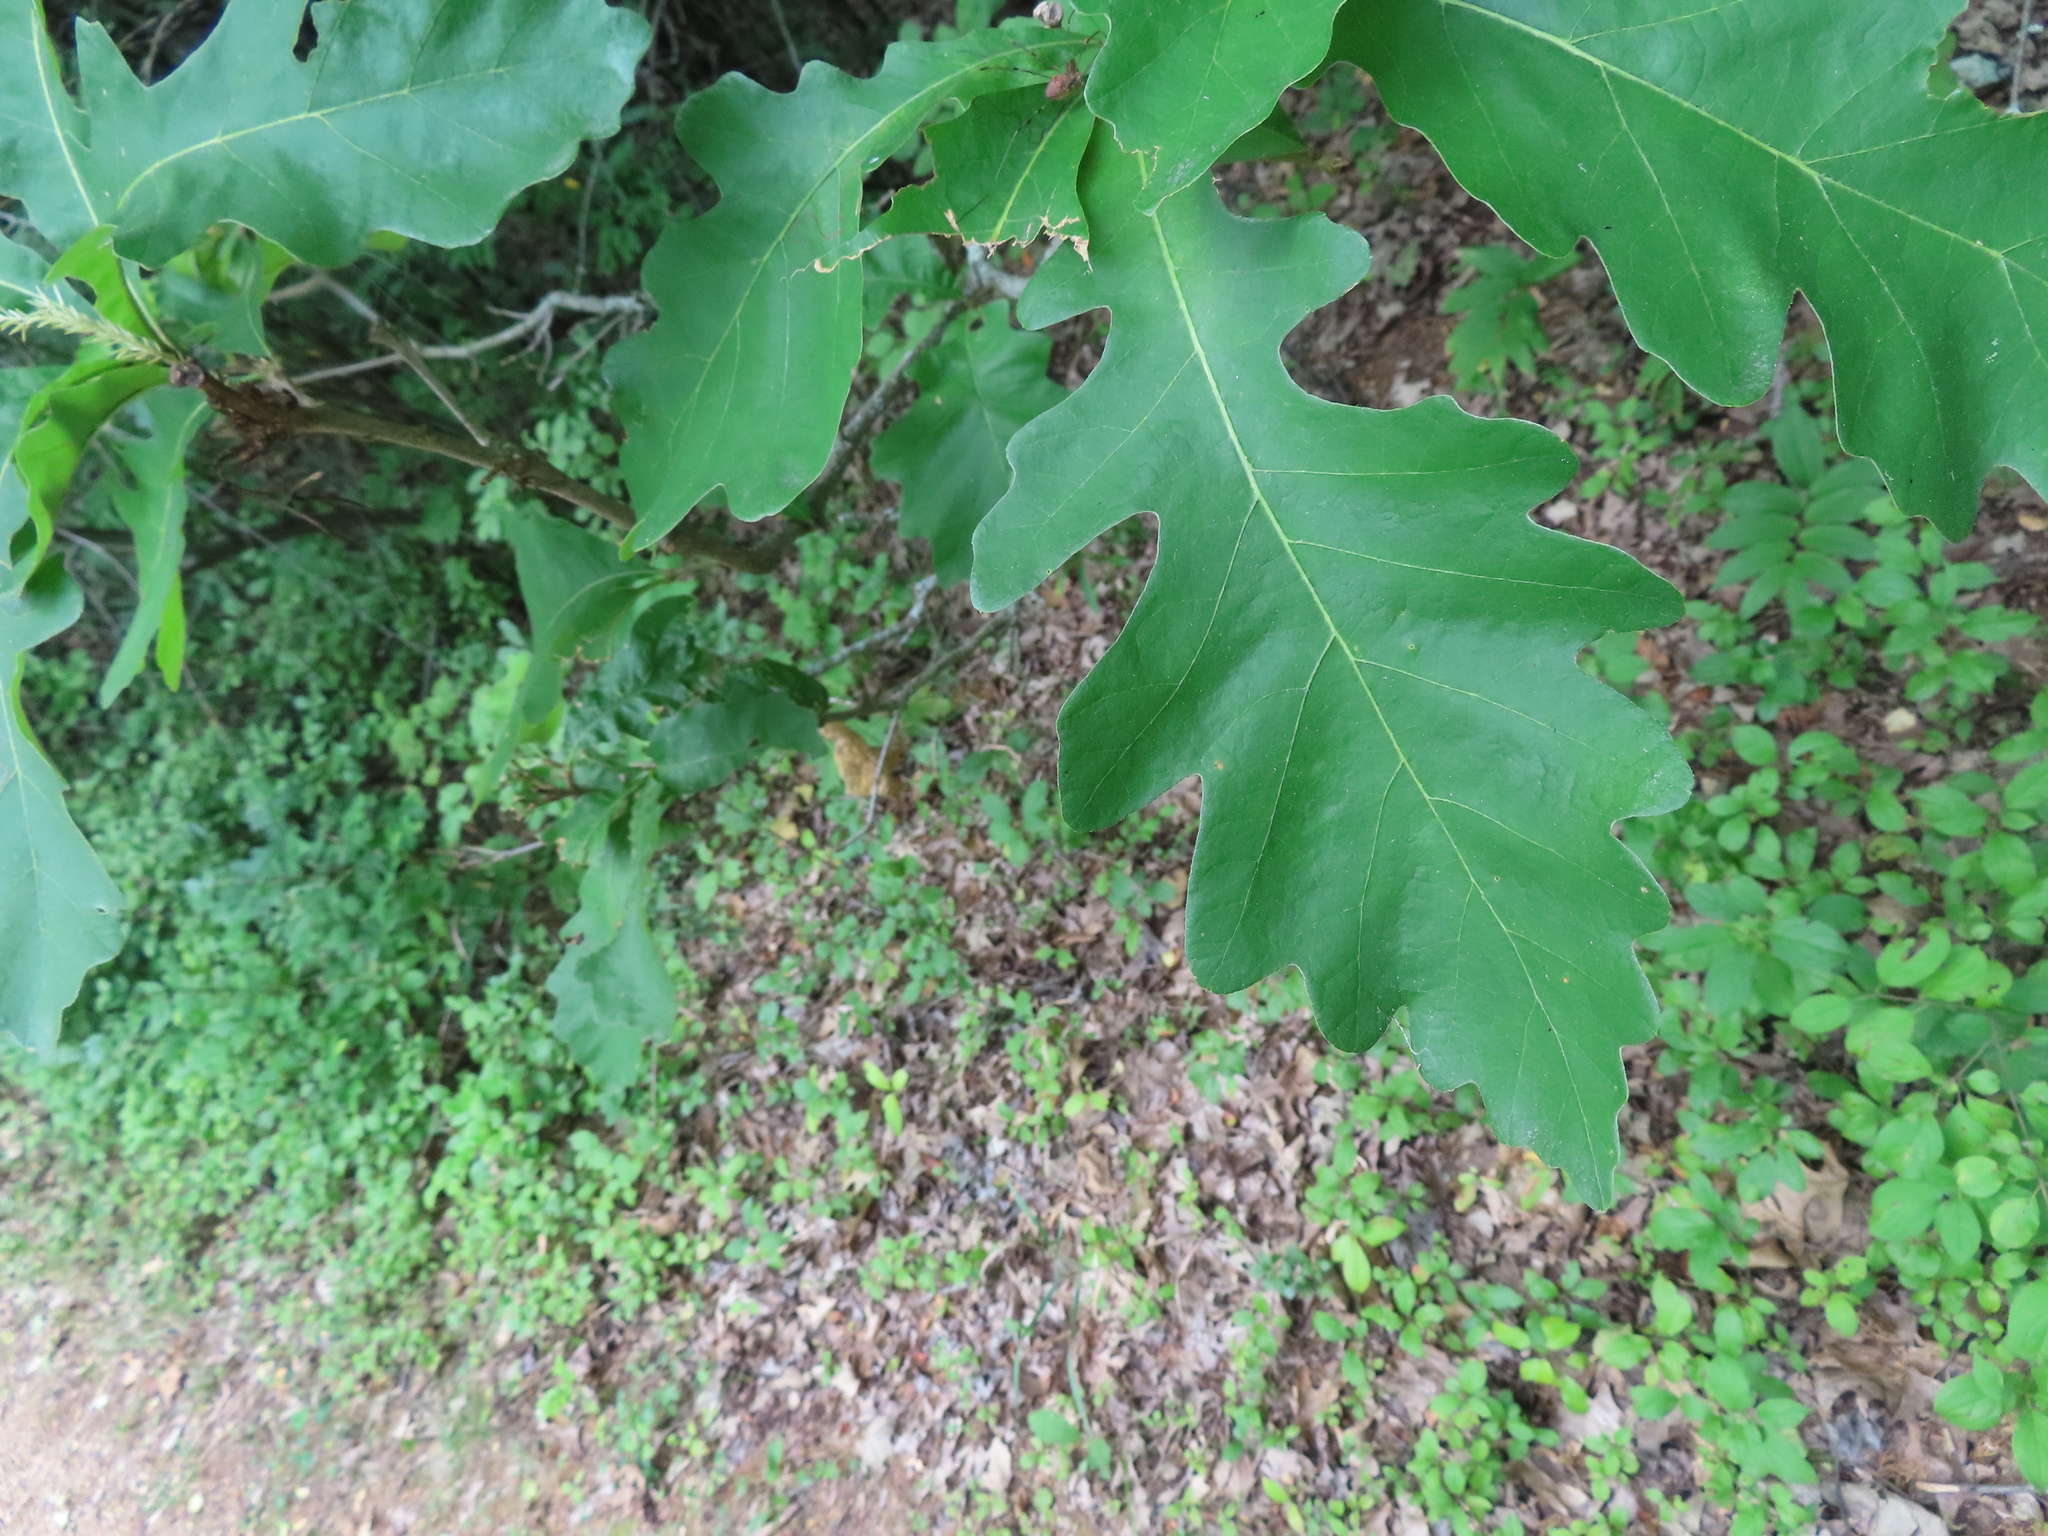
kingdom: Plantae
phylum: Tracheophyta
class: Magnoliopsida
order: Fagales
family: Fagaceae
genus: Quercus
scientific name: Quercus macrocarpa
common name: Bur oak
